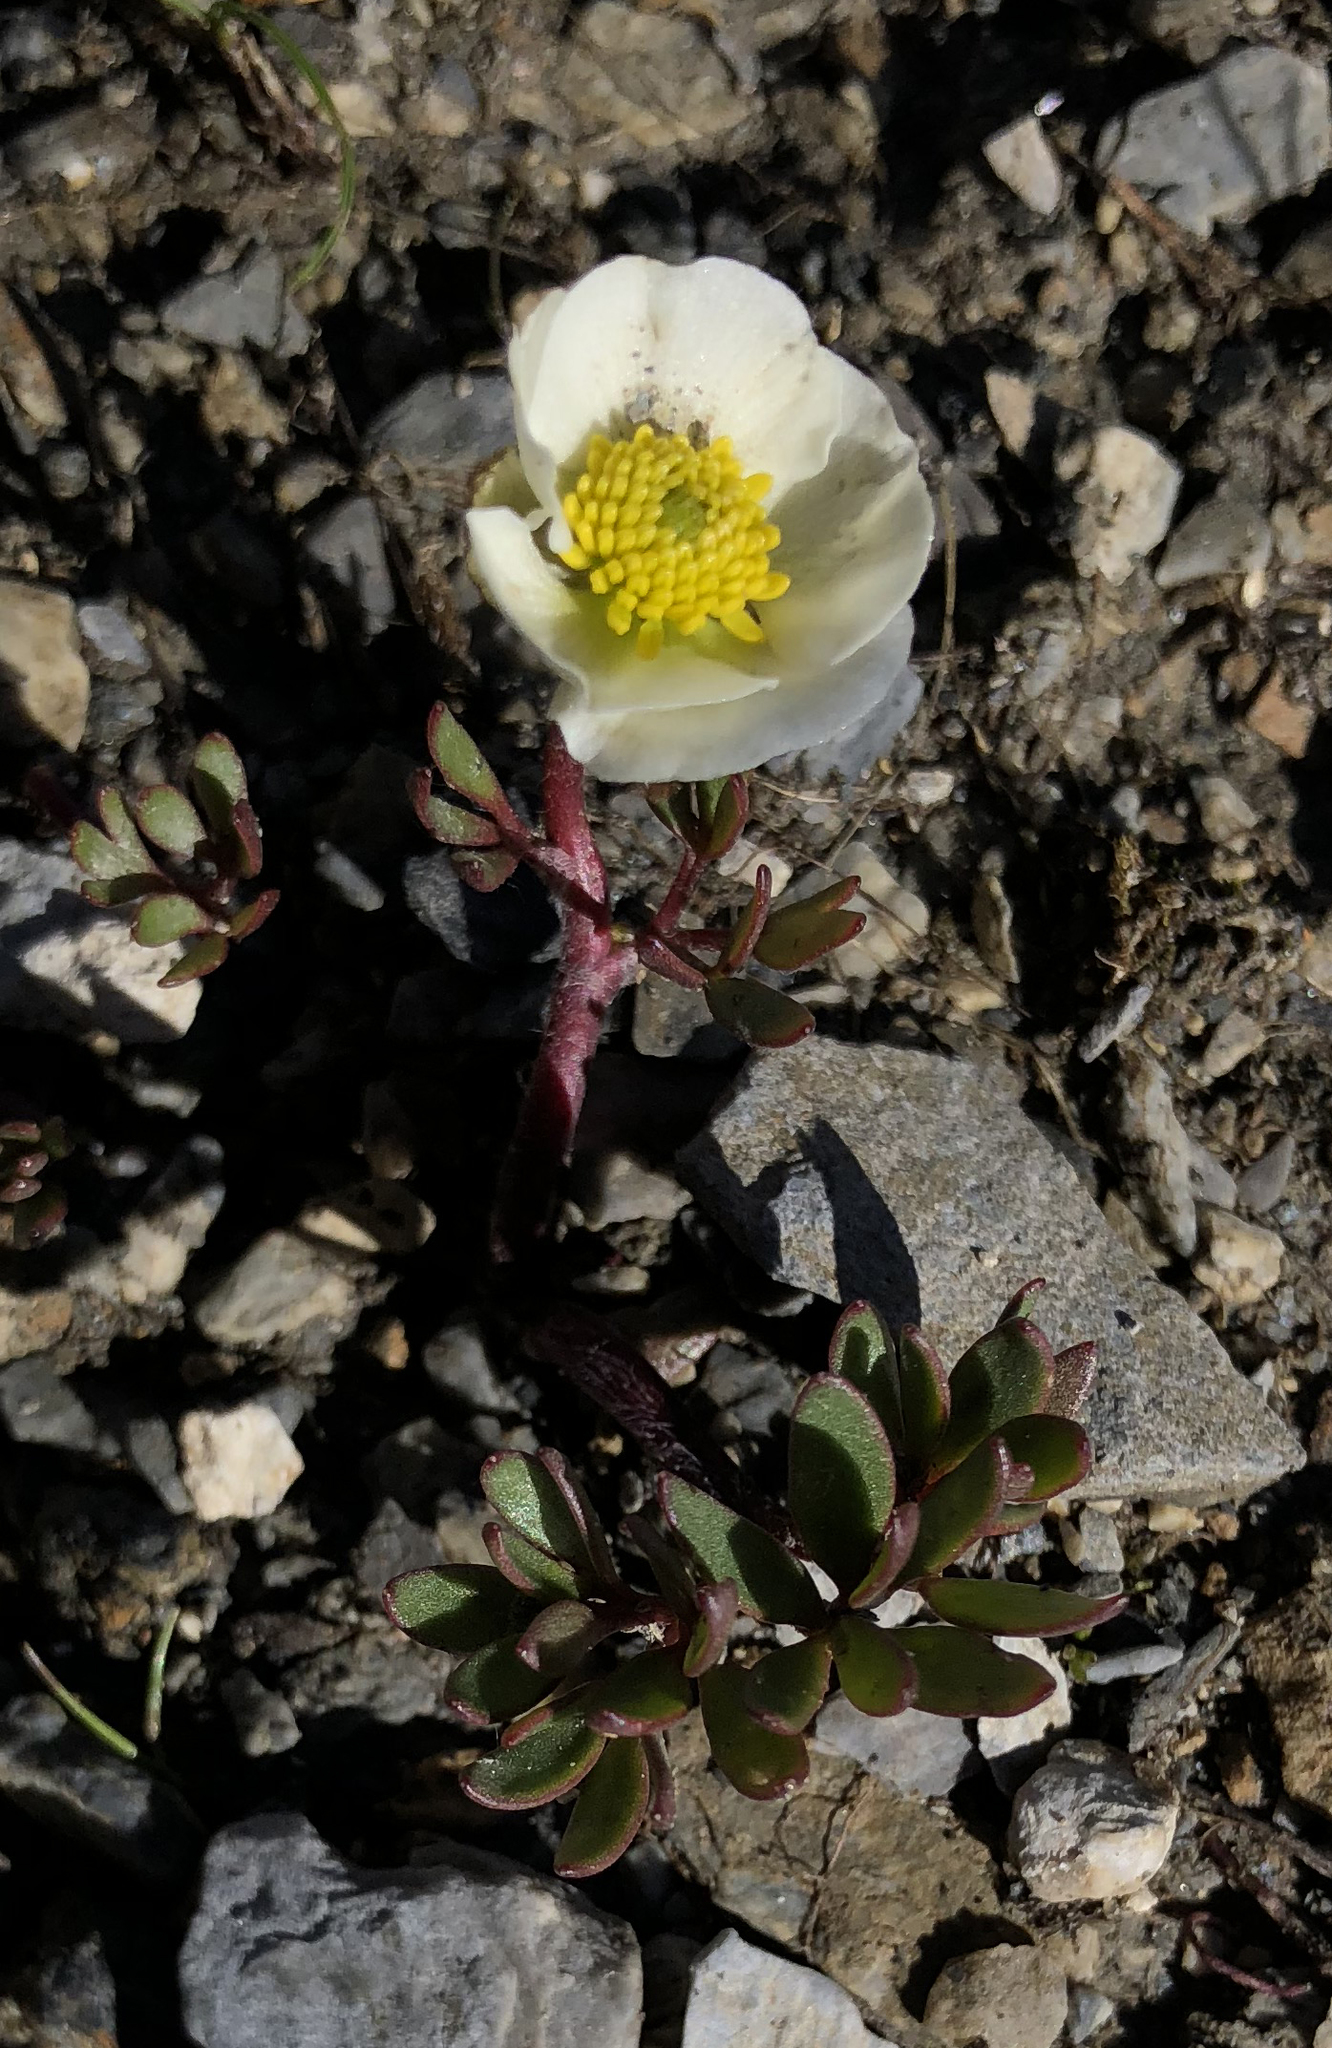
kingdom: Plantae
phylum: Tracheophyta
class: Magnoliopsida
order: Ranunculales
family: Ranunculaceae
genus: Ranunculus
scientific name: Ranunculus glacialis
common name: Glacier buttercup
